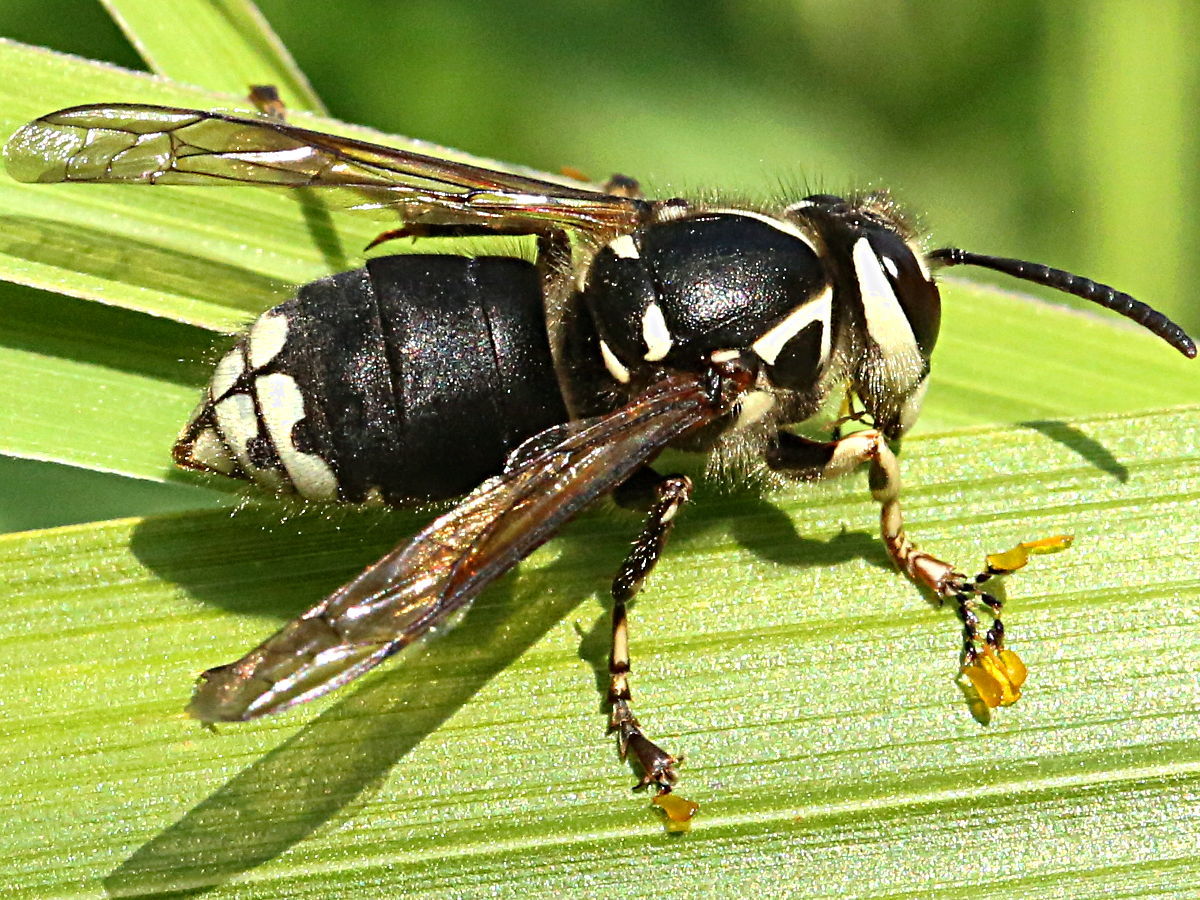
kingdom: Animalia
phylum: Arthropoda
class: Insecta
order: Hymenoptera
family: Vespidae
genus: Dolichovespula
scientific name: Dolichovespula maculata
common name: Bald-faced hornet
